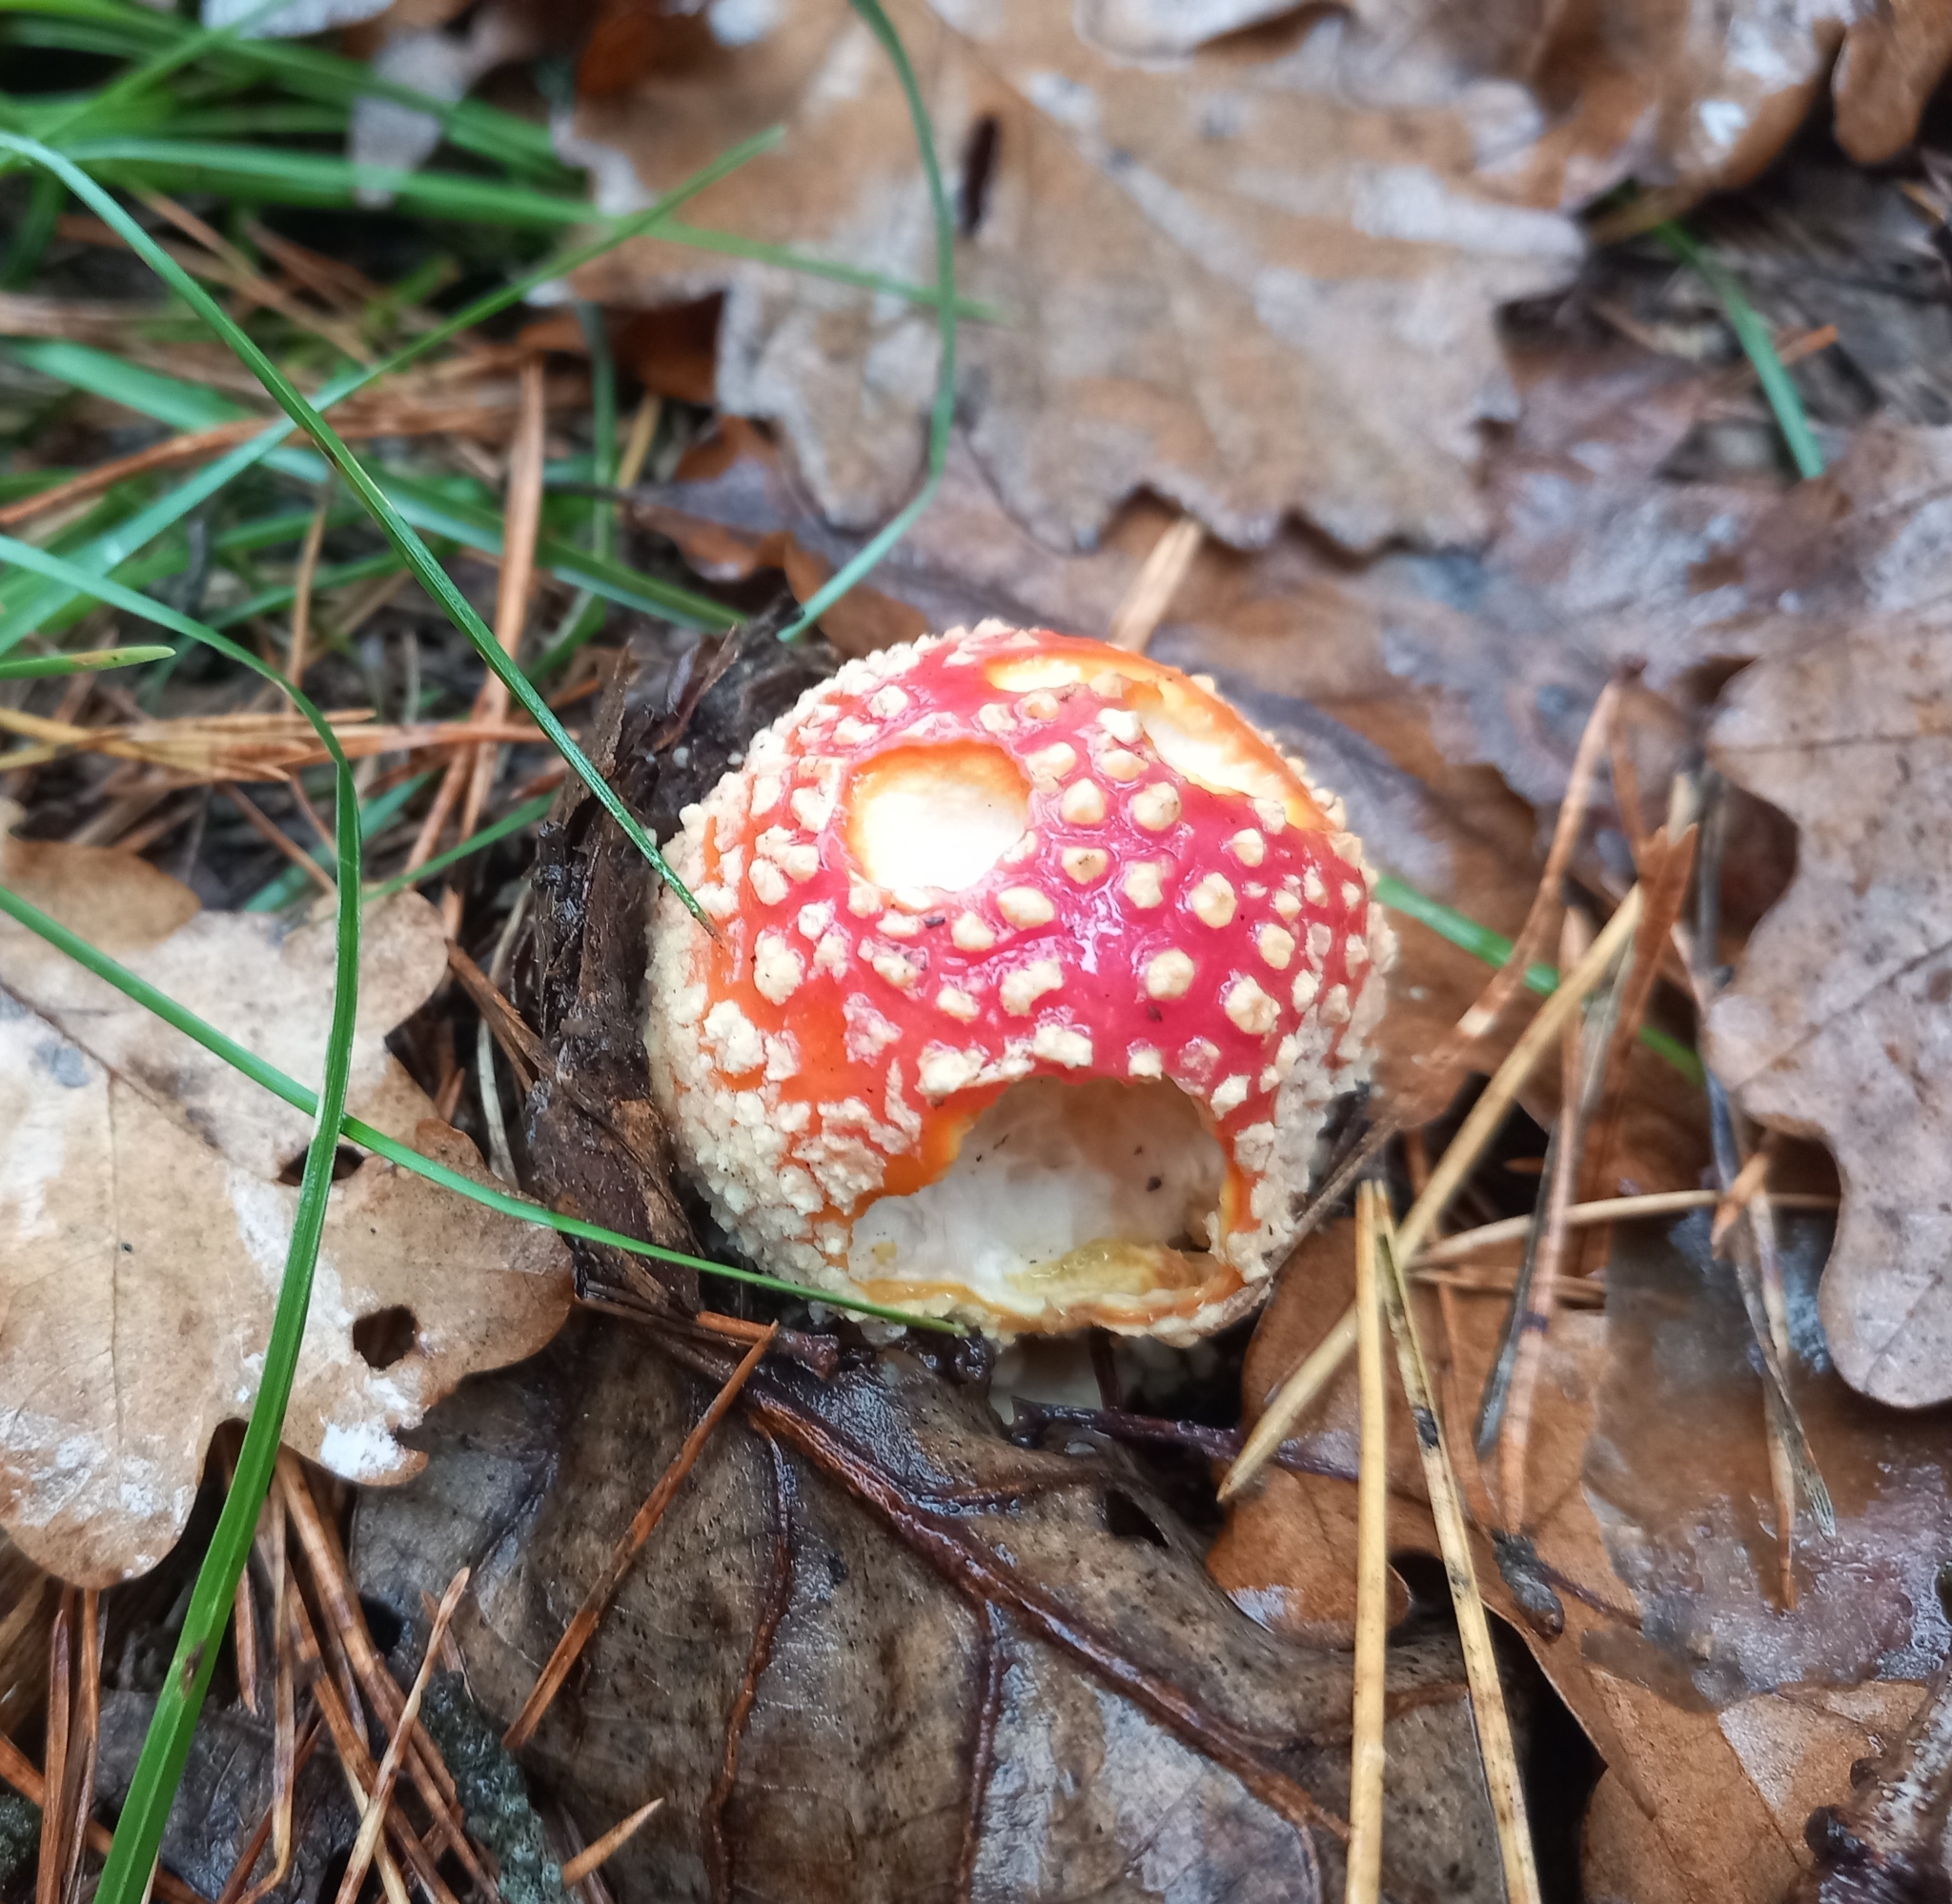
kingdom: Fungi
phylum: Basidiomycota
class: Agaricomycetes
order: Agaricales
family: Amanitaceae
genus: Amanita
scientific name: Amanita muscaria
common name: Fly agaric
